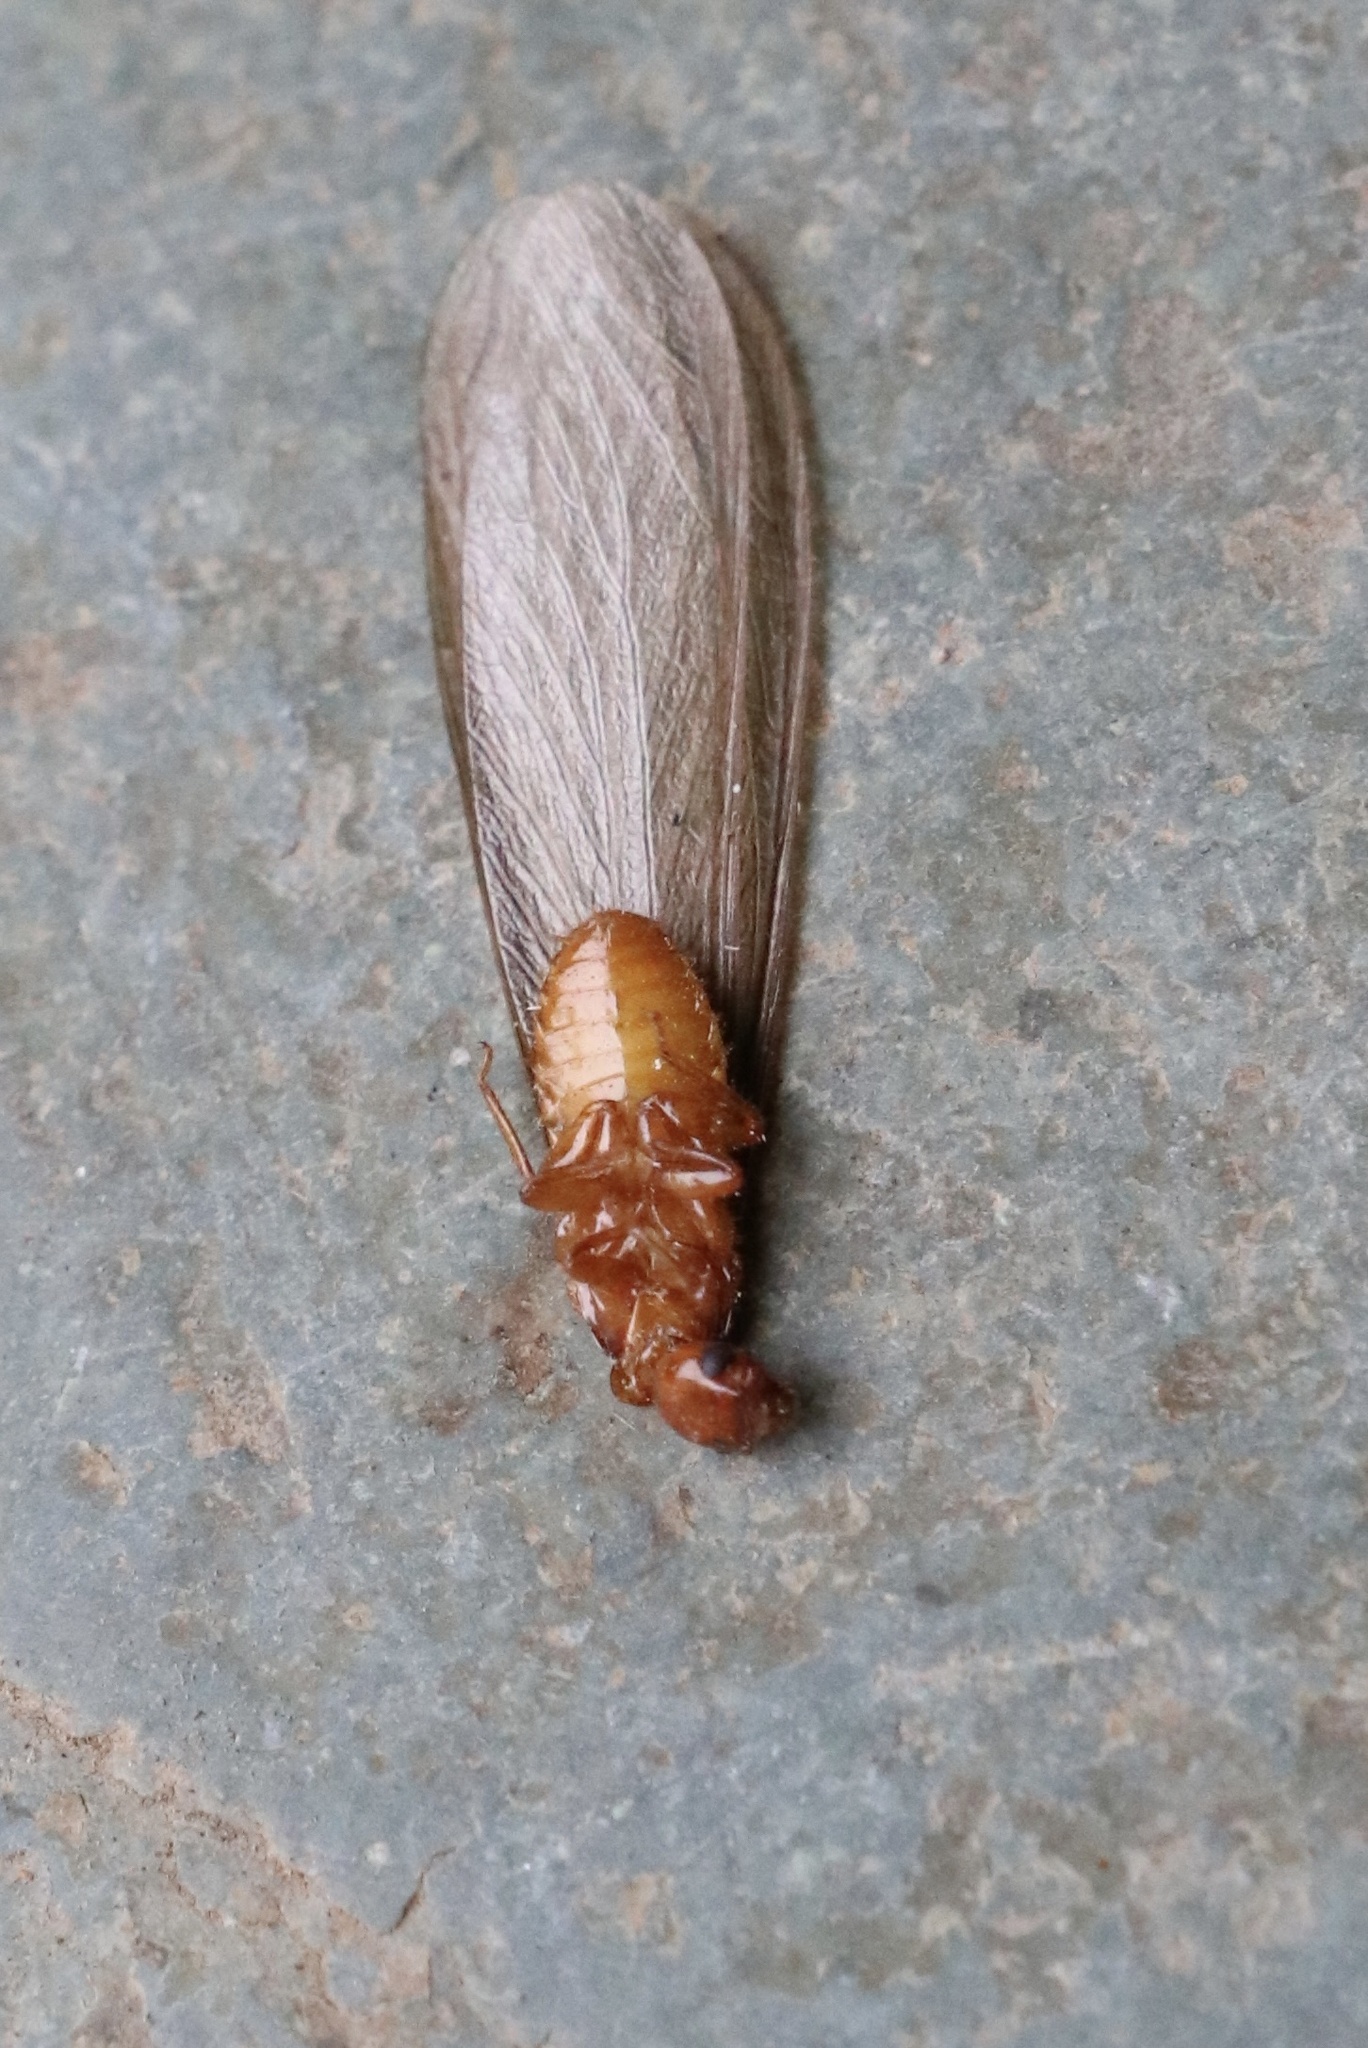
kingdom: Animalia
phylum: Arthropoda
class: Insecta
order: Blattodea
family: Stolotermitidae
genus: Porotermes
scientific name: Porotermes quadricollis
